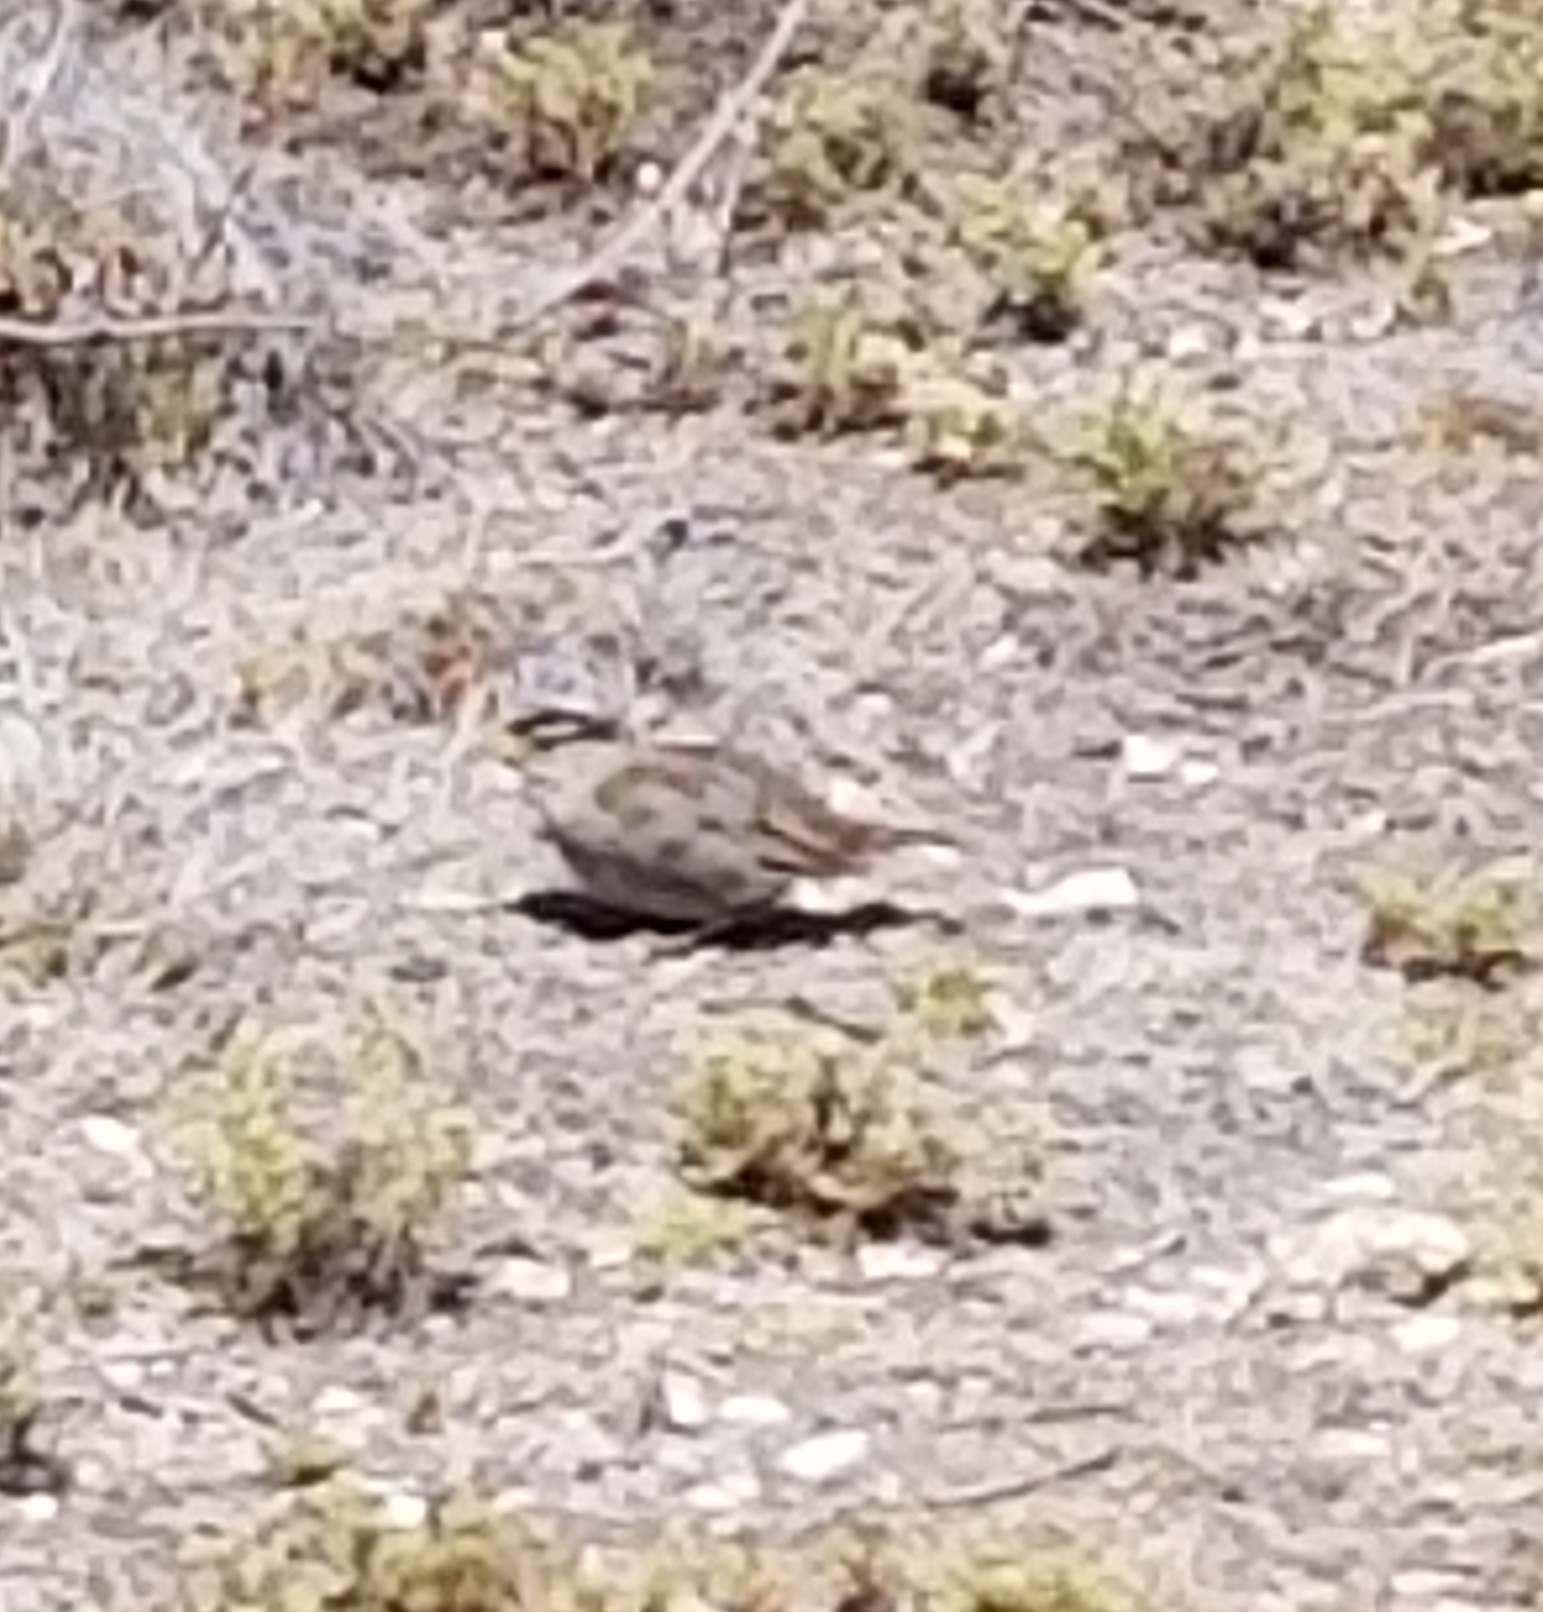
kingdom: Animalia
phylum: Chordata
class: Aves
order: Passeriformes
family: Passerellidae
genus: Zonotrichia
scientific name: Zonotrichia leucophrys
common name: White-crowned sparrow
